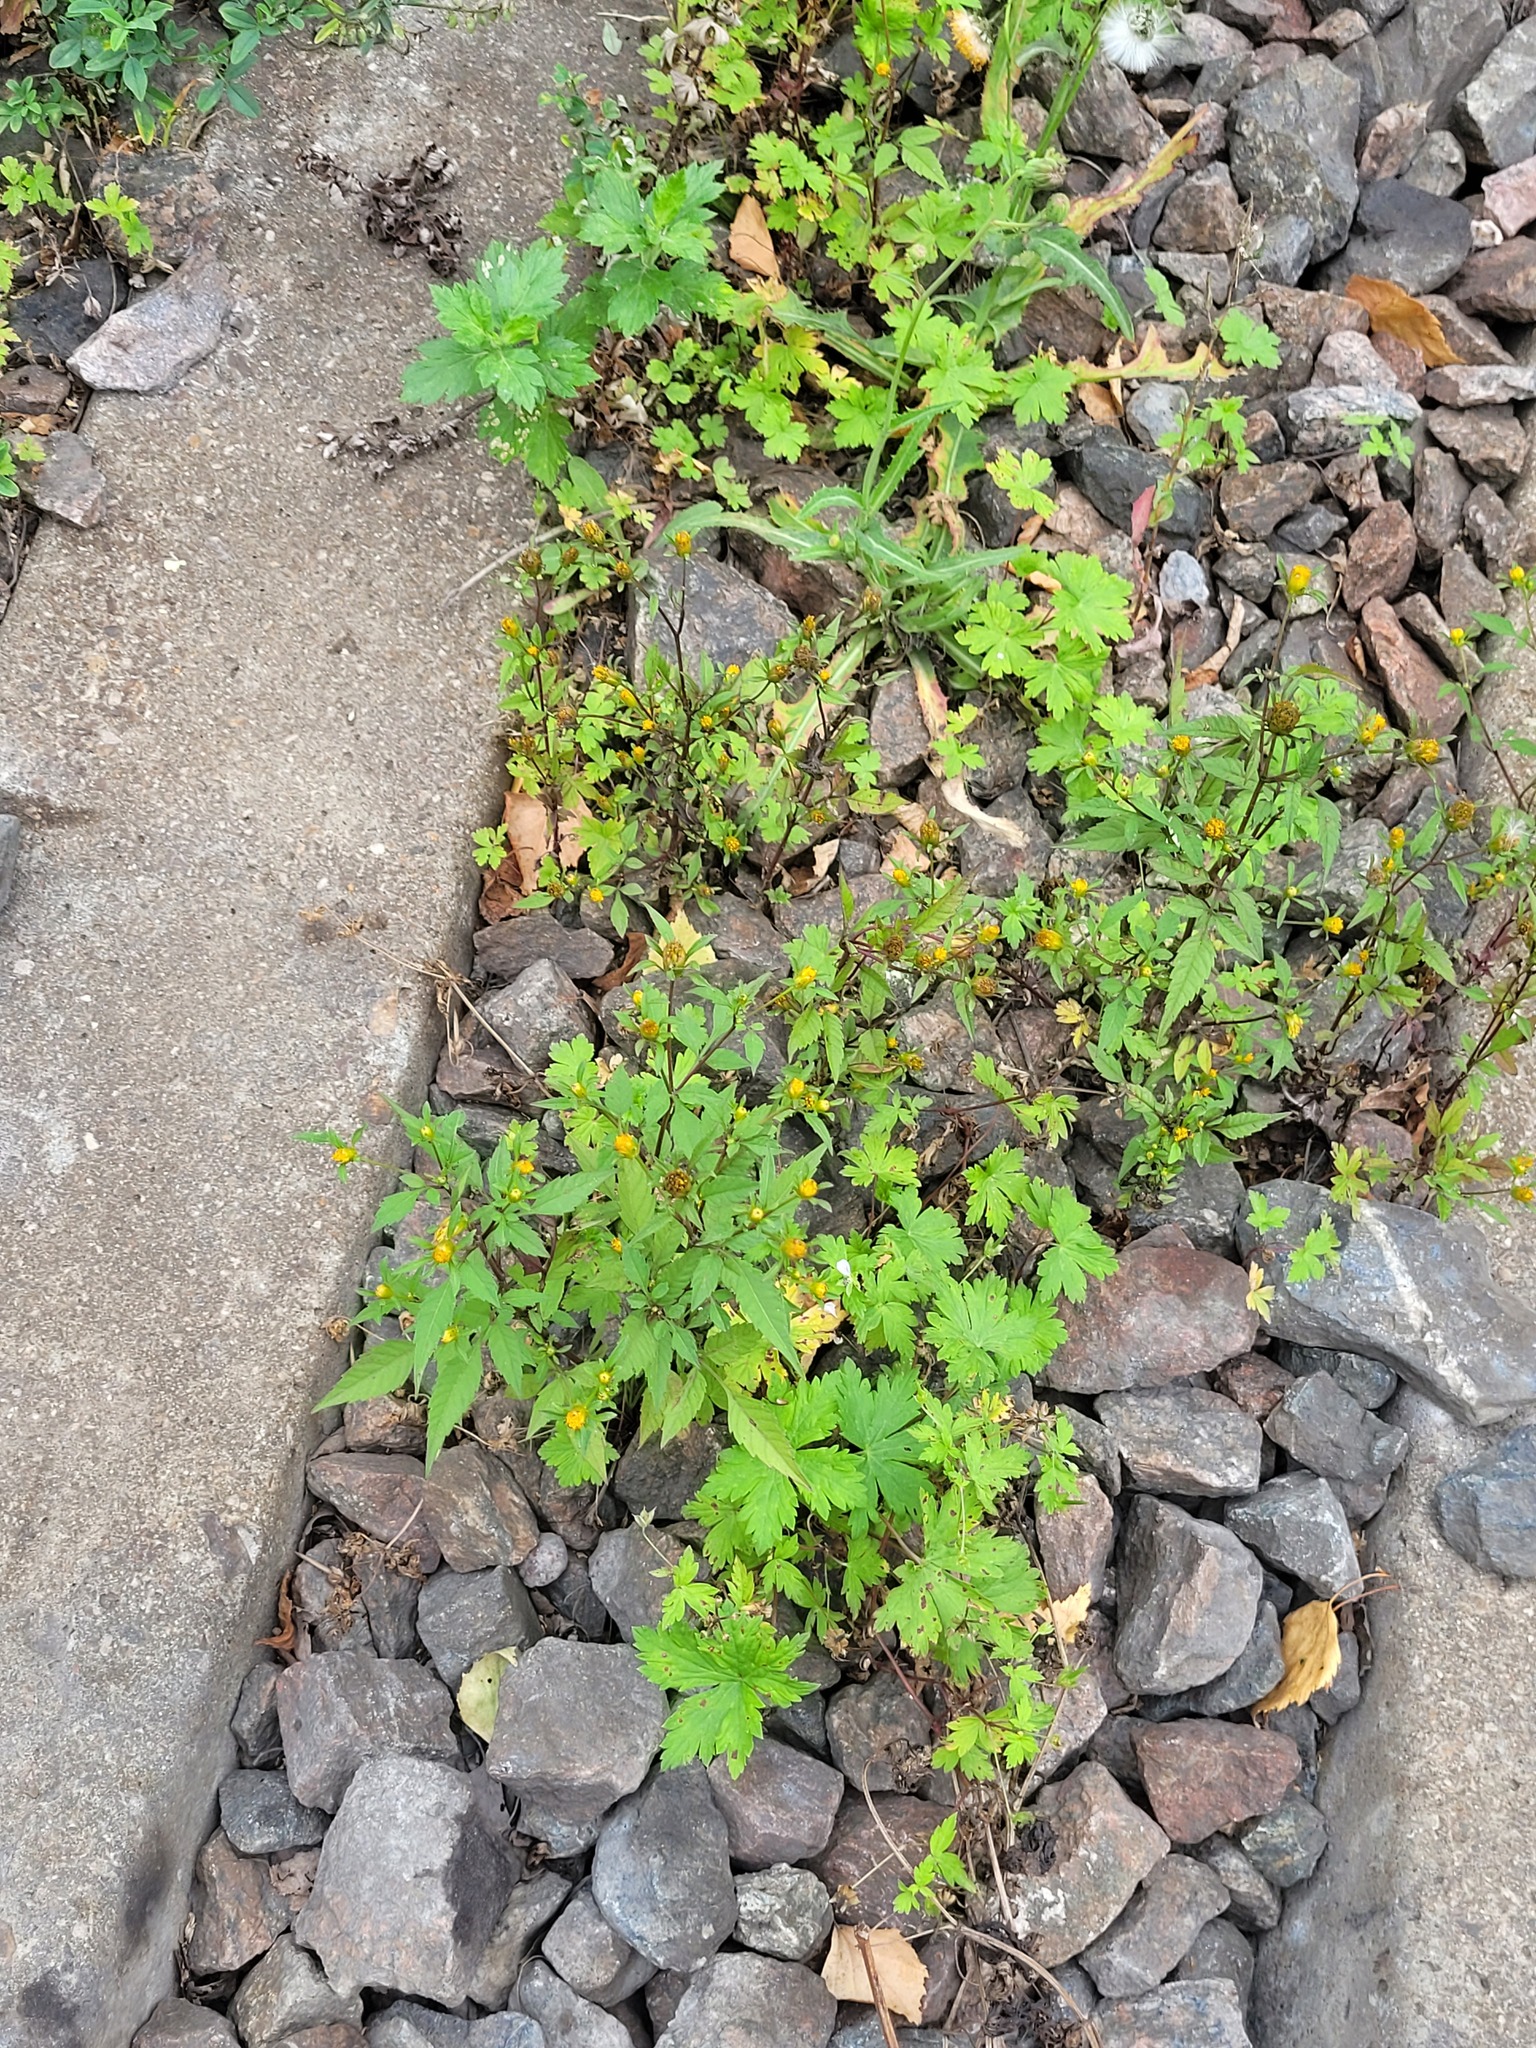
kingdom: Plantae
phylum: Tracheophyta
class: Magnoliopsida
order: Asterales
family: Asteraceae
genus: Bidens
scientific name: Bidens frondosa
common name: Beggarticks
